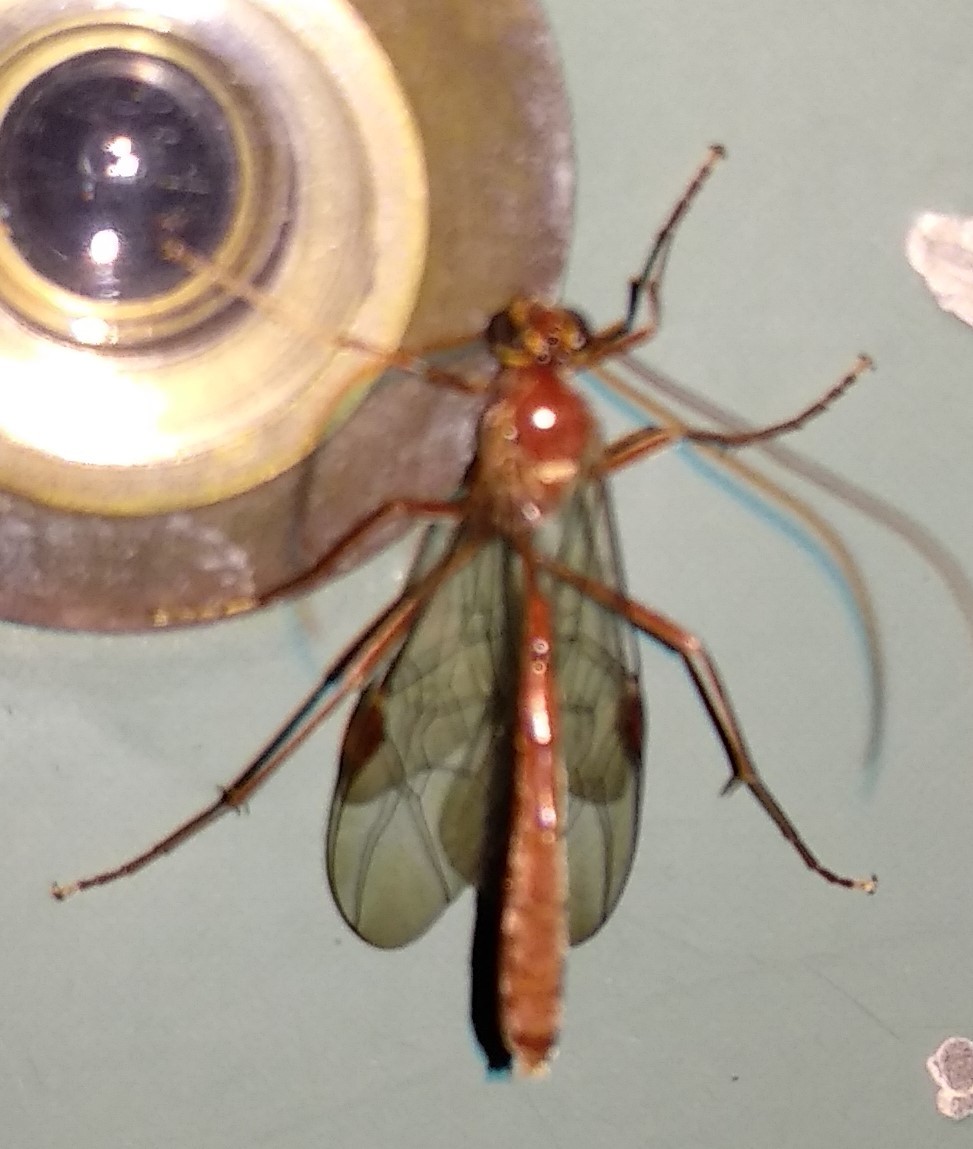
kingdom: Animalia
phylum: Arthropoda
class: Insecta
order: Hymenoptera
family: Ichneumonidae
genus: Ophion
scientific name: Ophion
